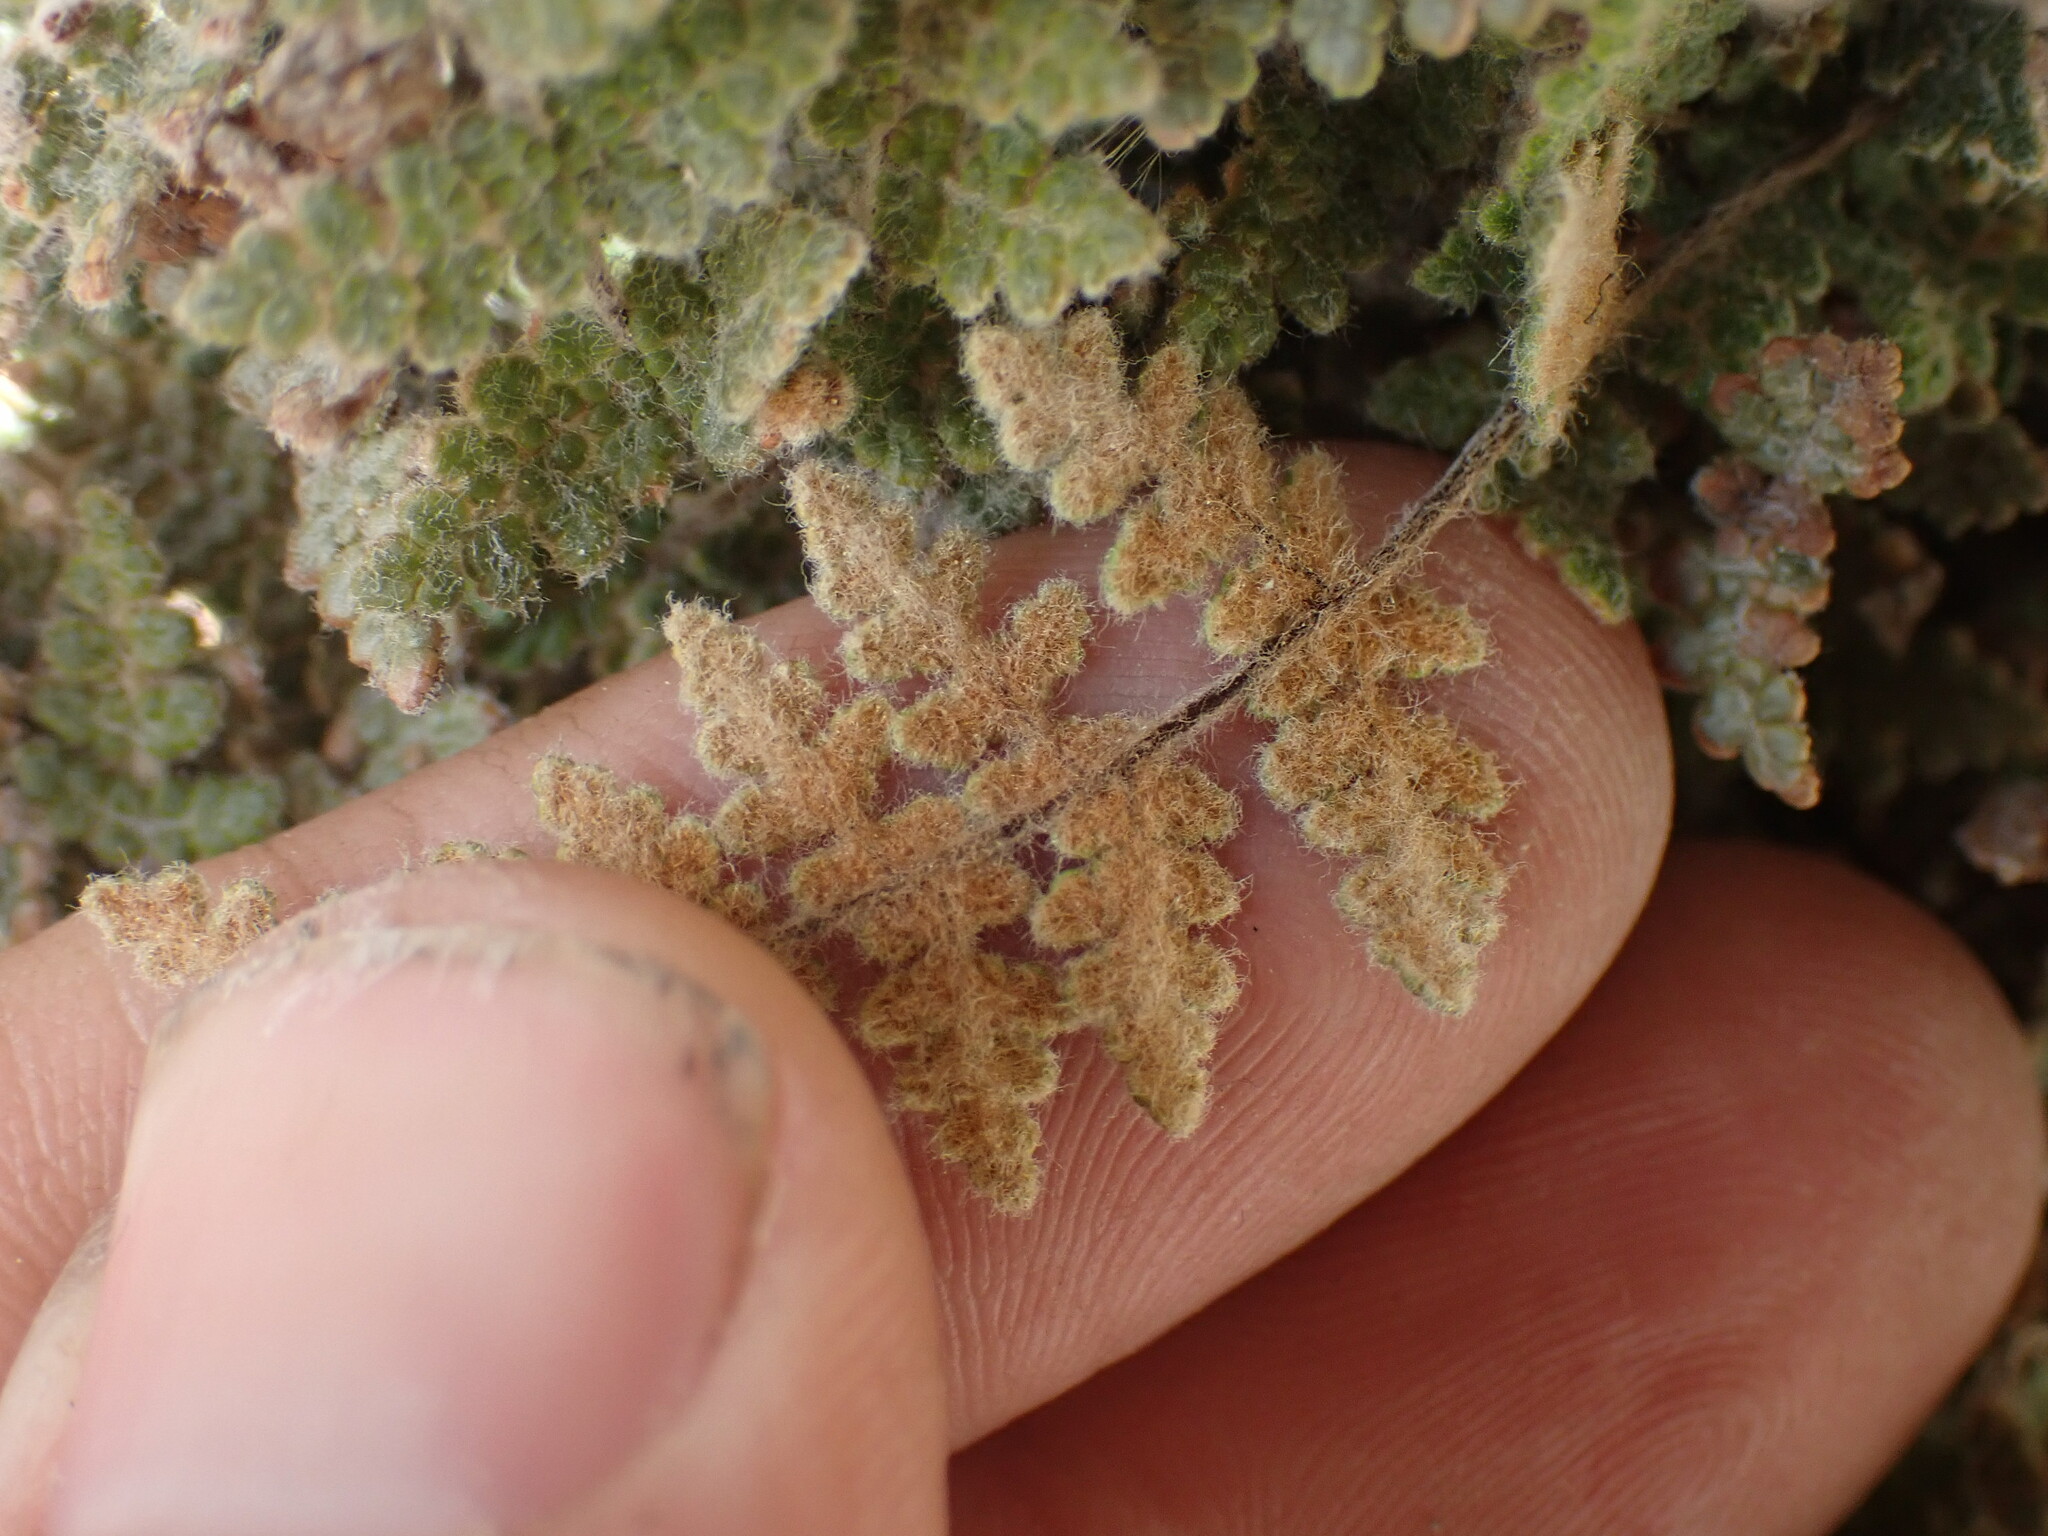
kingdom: Plantae
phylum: Tracheophyta
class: Polypodiopsida
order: Polypodiales
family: Pteridaceae
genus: Myriopteris
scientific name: Myriopteris gracilis
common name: Fee's lip fern
